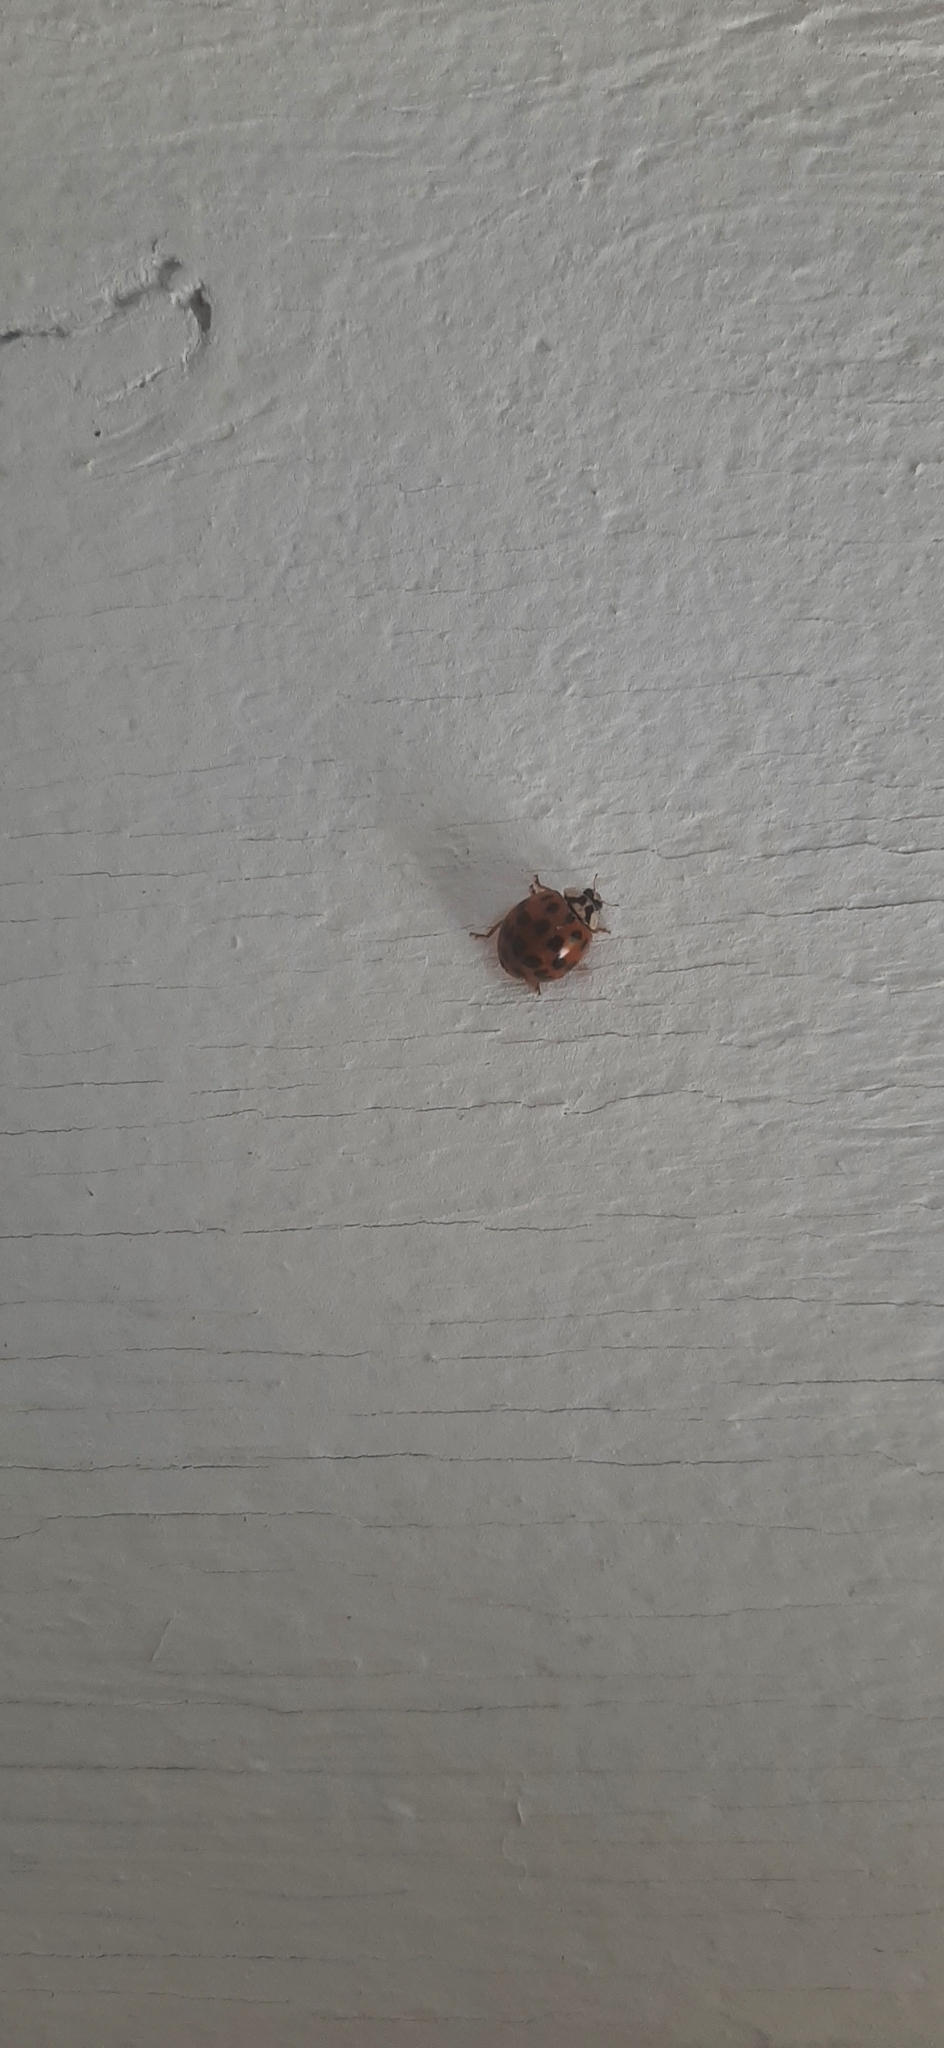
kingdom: Animalia
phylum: Arthropoda
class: Insecta
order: Coleoptera
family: Coccinellidae
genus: Harmonia
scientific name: Harmonia axyridis
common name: Harlequin ladybird
